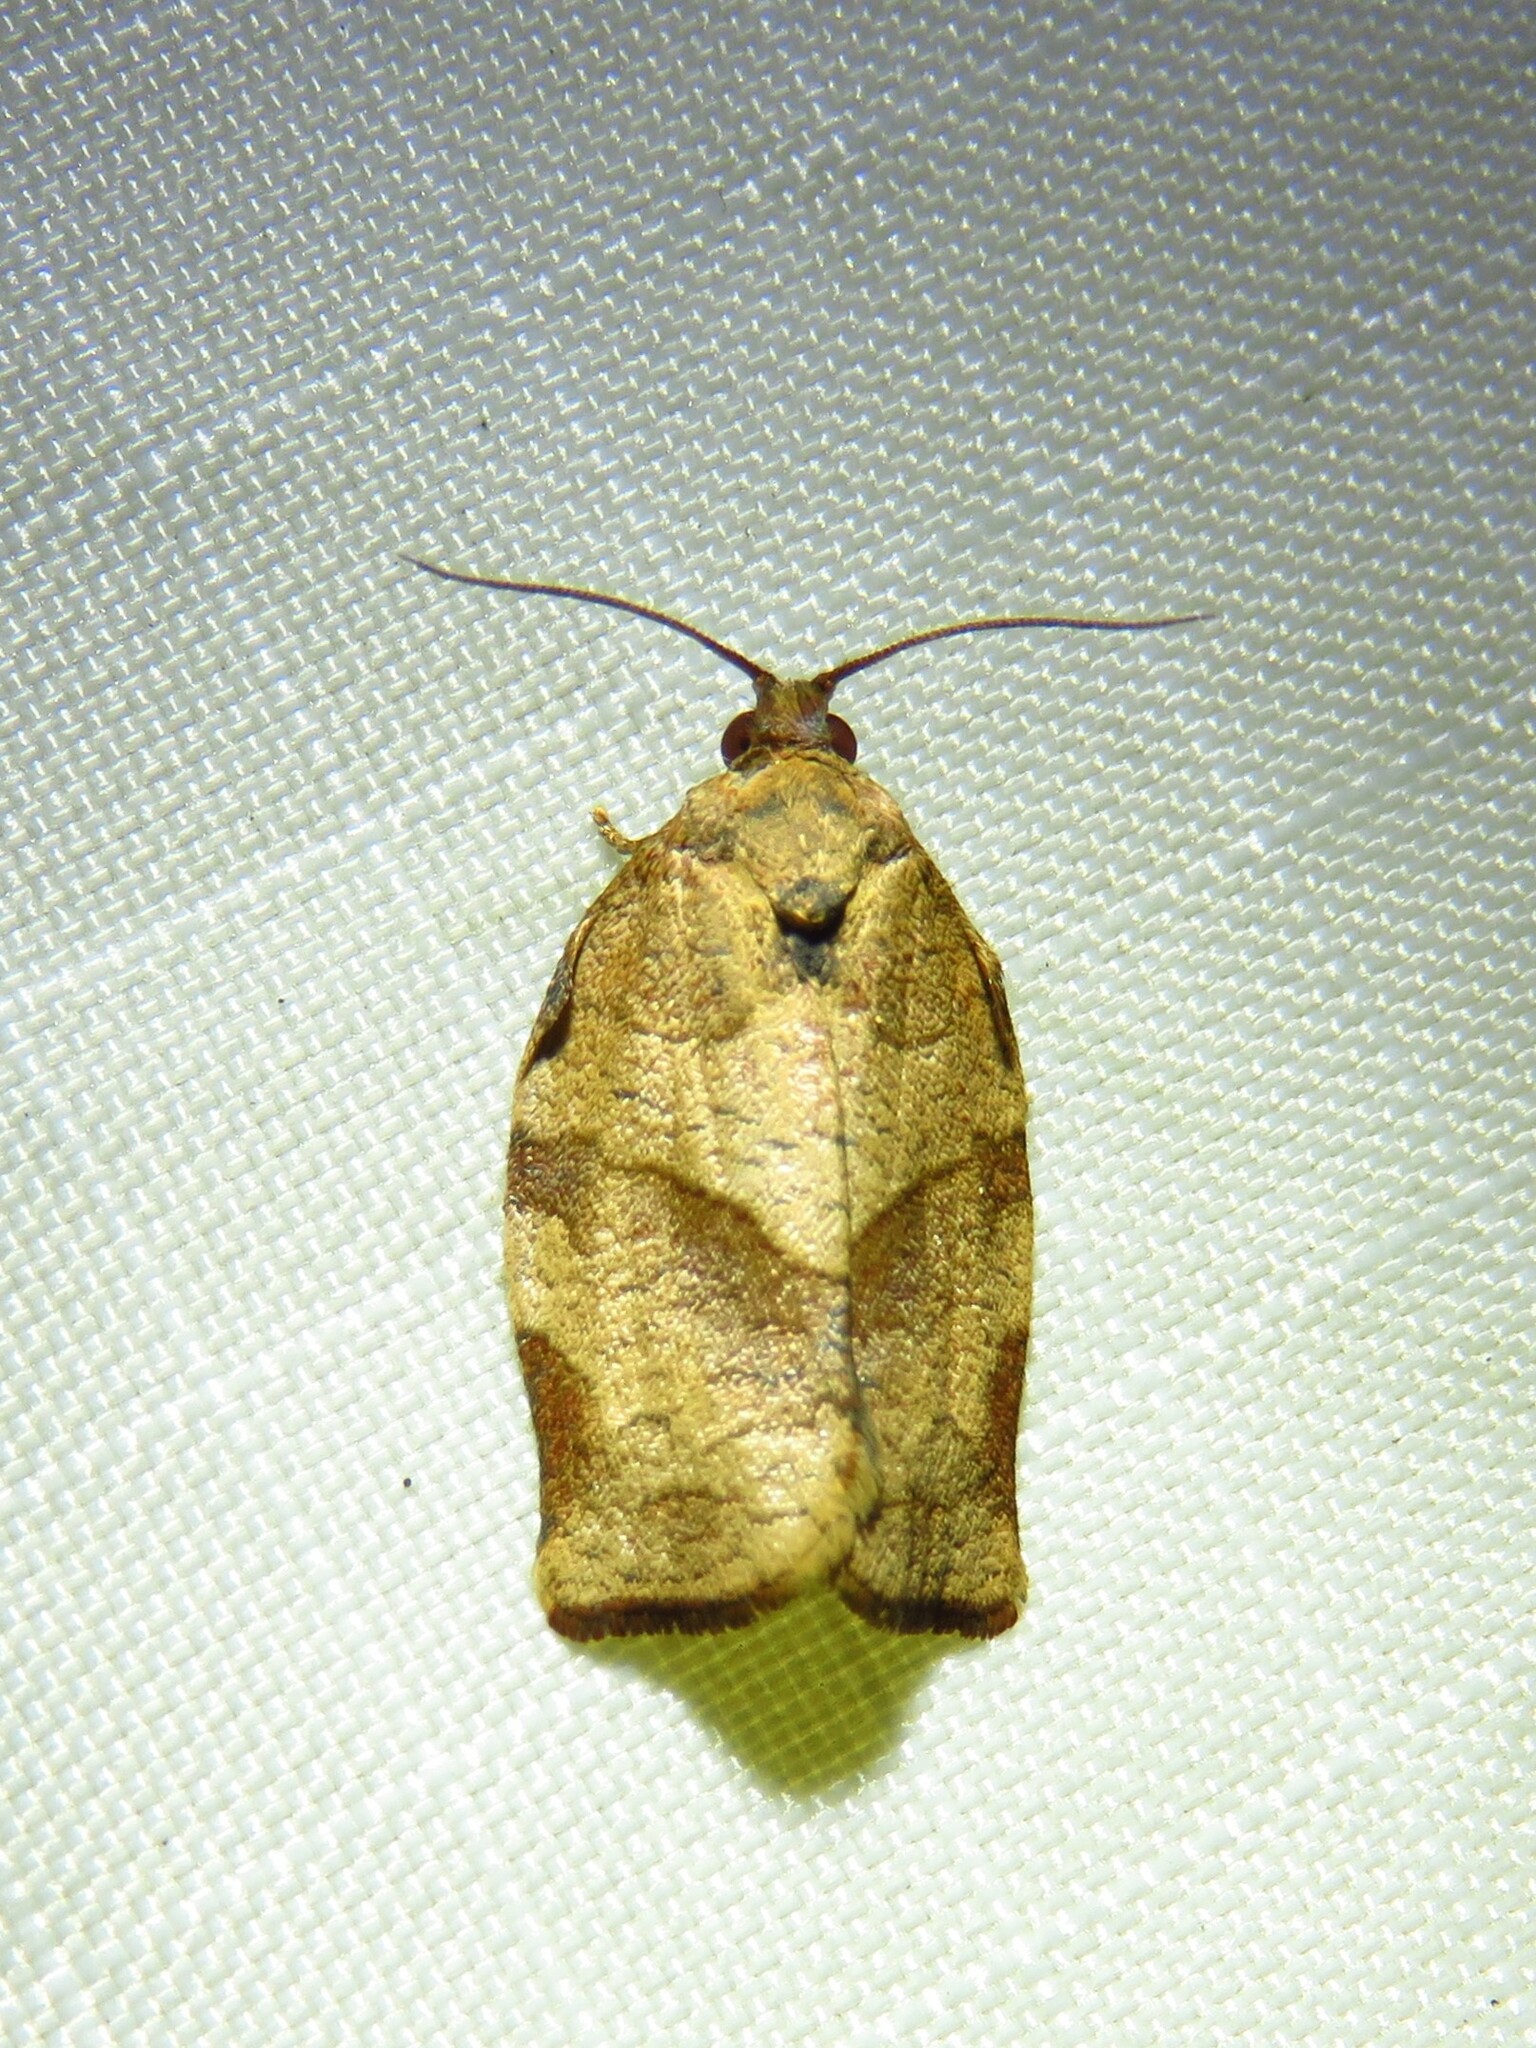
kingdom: Animalia
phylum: Arthropoda
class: Insecta
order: Lepidoptera
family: Tortricidae
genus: Choristoneura
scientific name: Choristoneura rosaceana
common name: Oblique-banded leafroller moth
